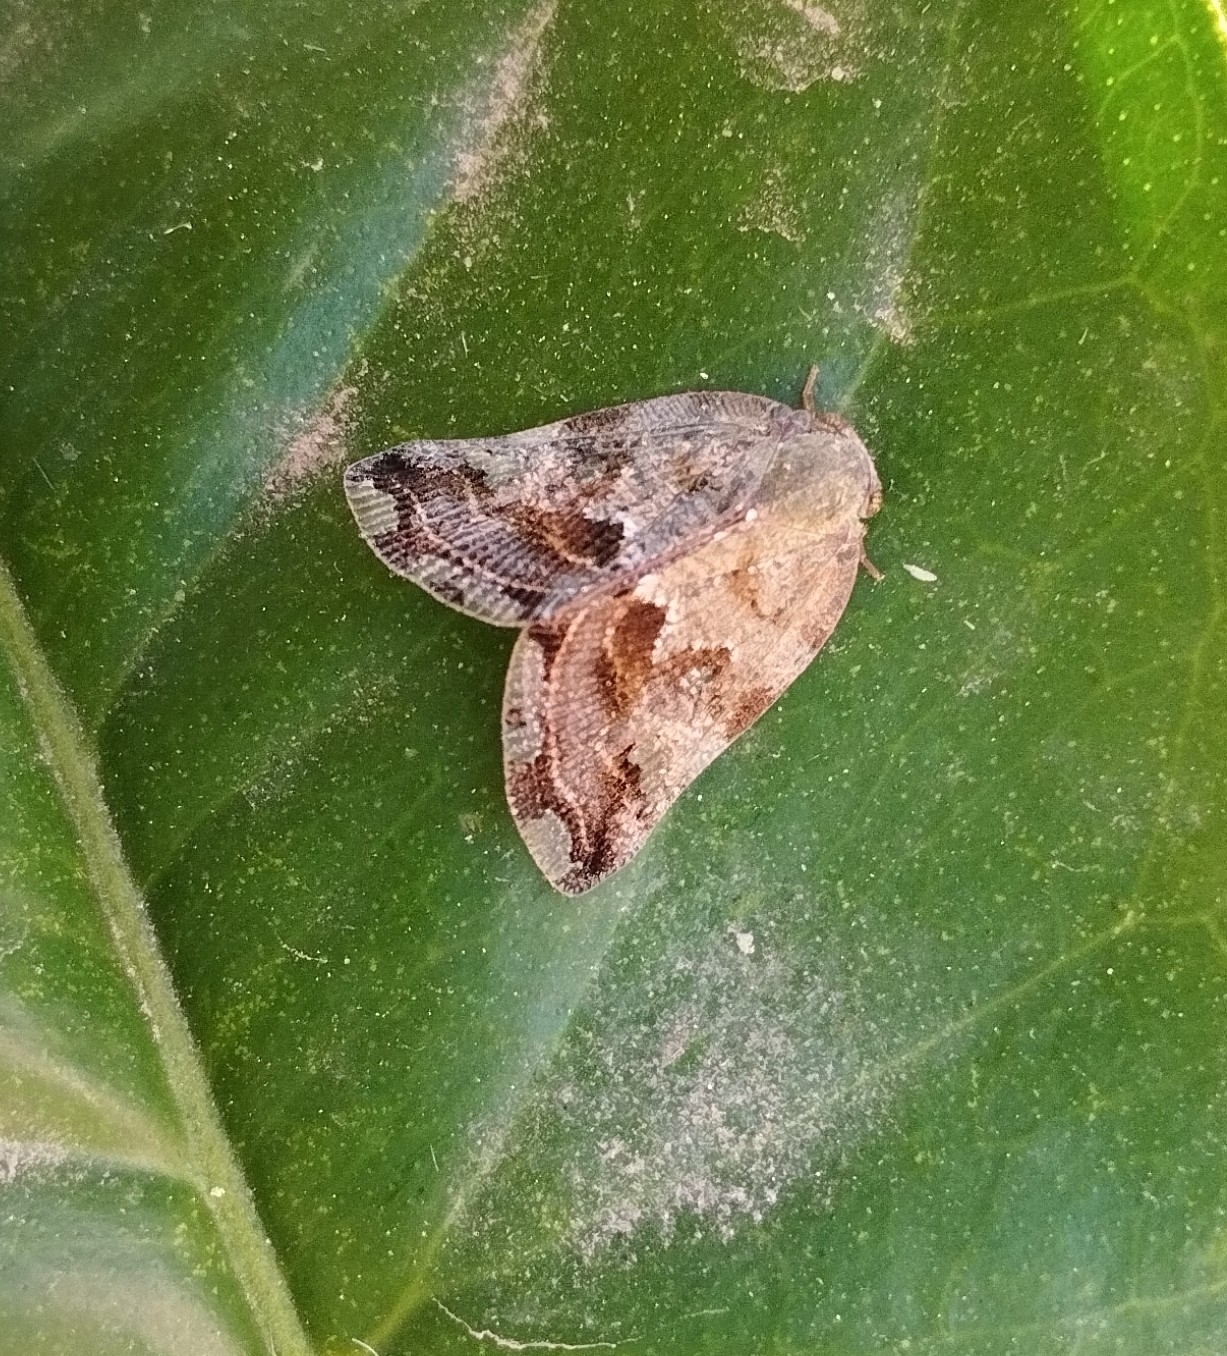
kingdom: Animalia
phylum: Arthropoda
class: Insecta
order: Hemiptera
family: Ricaniidae
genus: Ricania
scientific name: Ricania speculum
